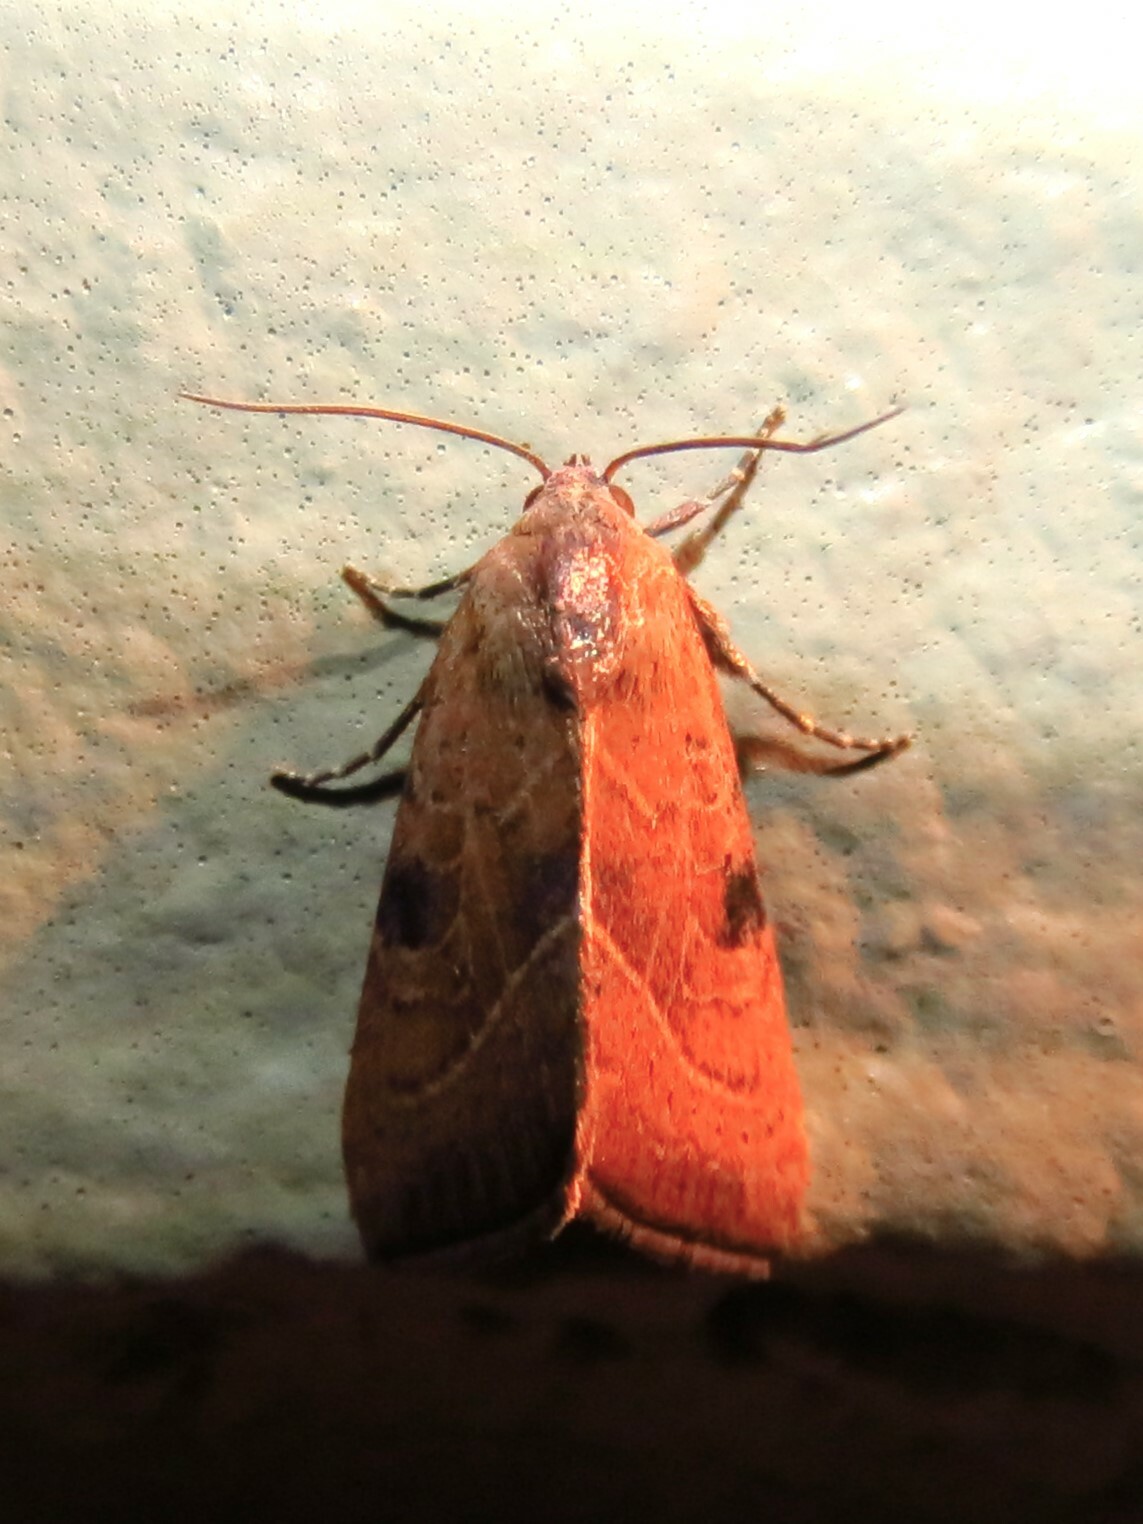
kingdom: Animalia
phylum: Arthropoda
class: Insecta
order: Lepidoptera
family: Noctuidae
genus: Galgula
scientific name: Galgula partita
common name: Wedgeling
